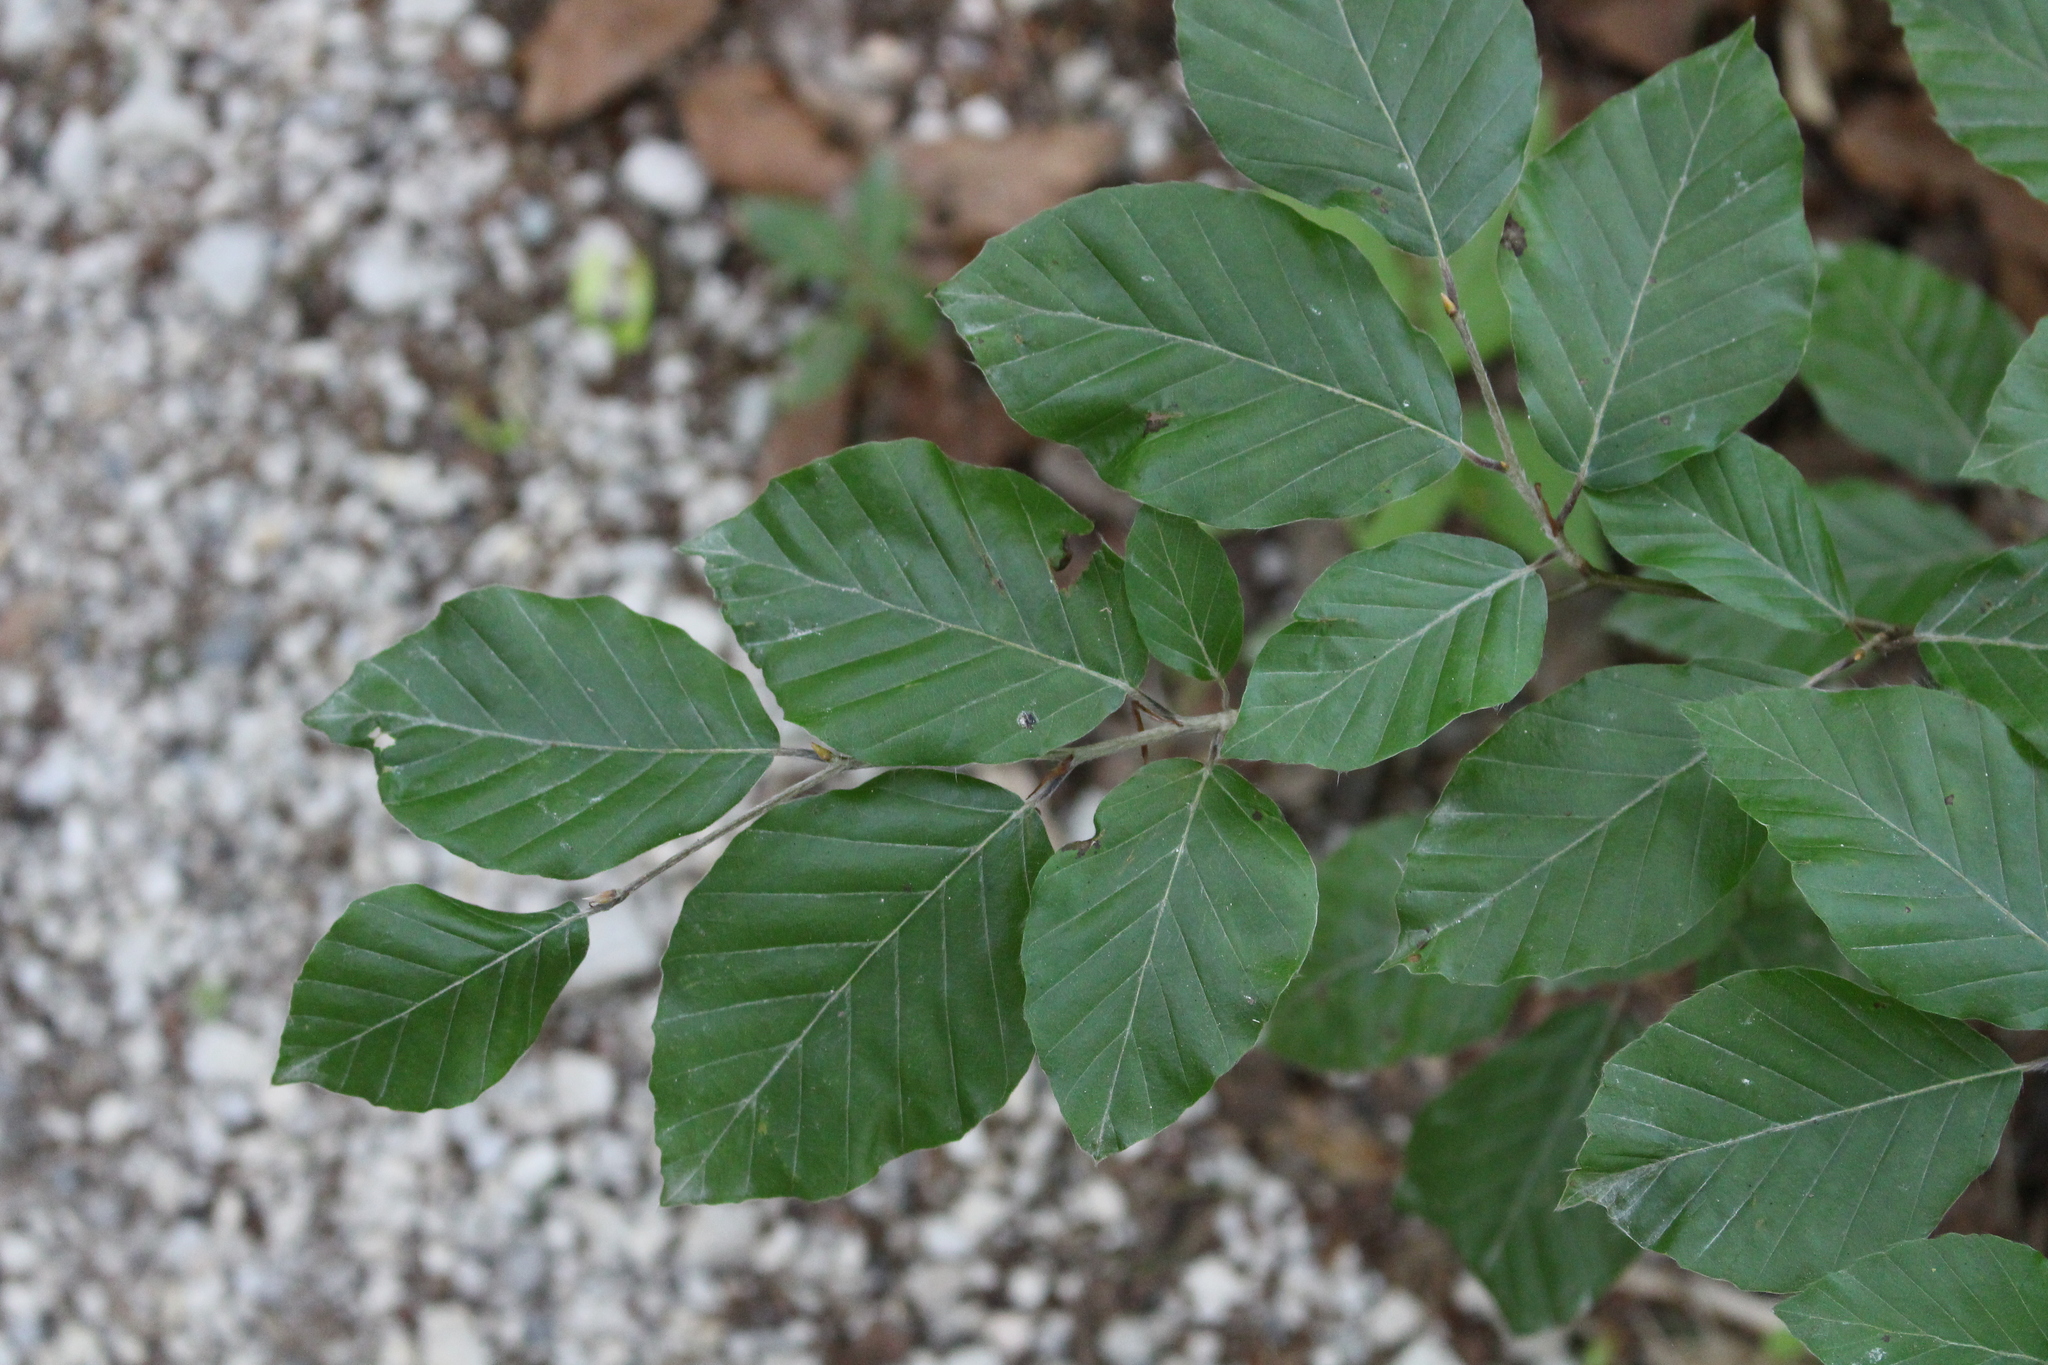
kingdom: Plantae
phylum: Tracheophyta
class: Magnoliopsida
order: Fagales
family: Fagaceae
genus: Fagus
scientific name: Fagus sylvatica
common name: Beech
